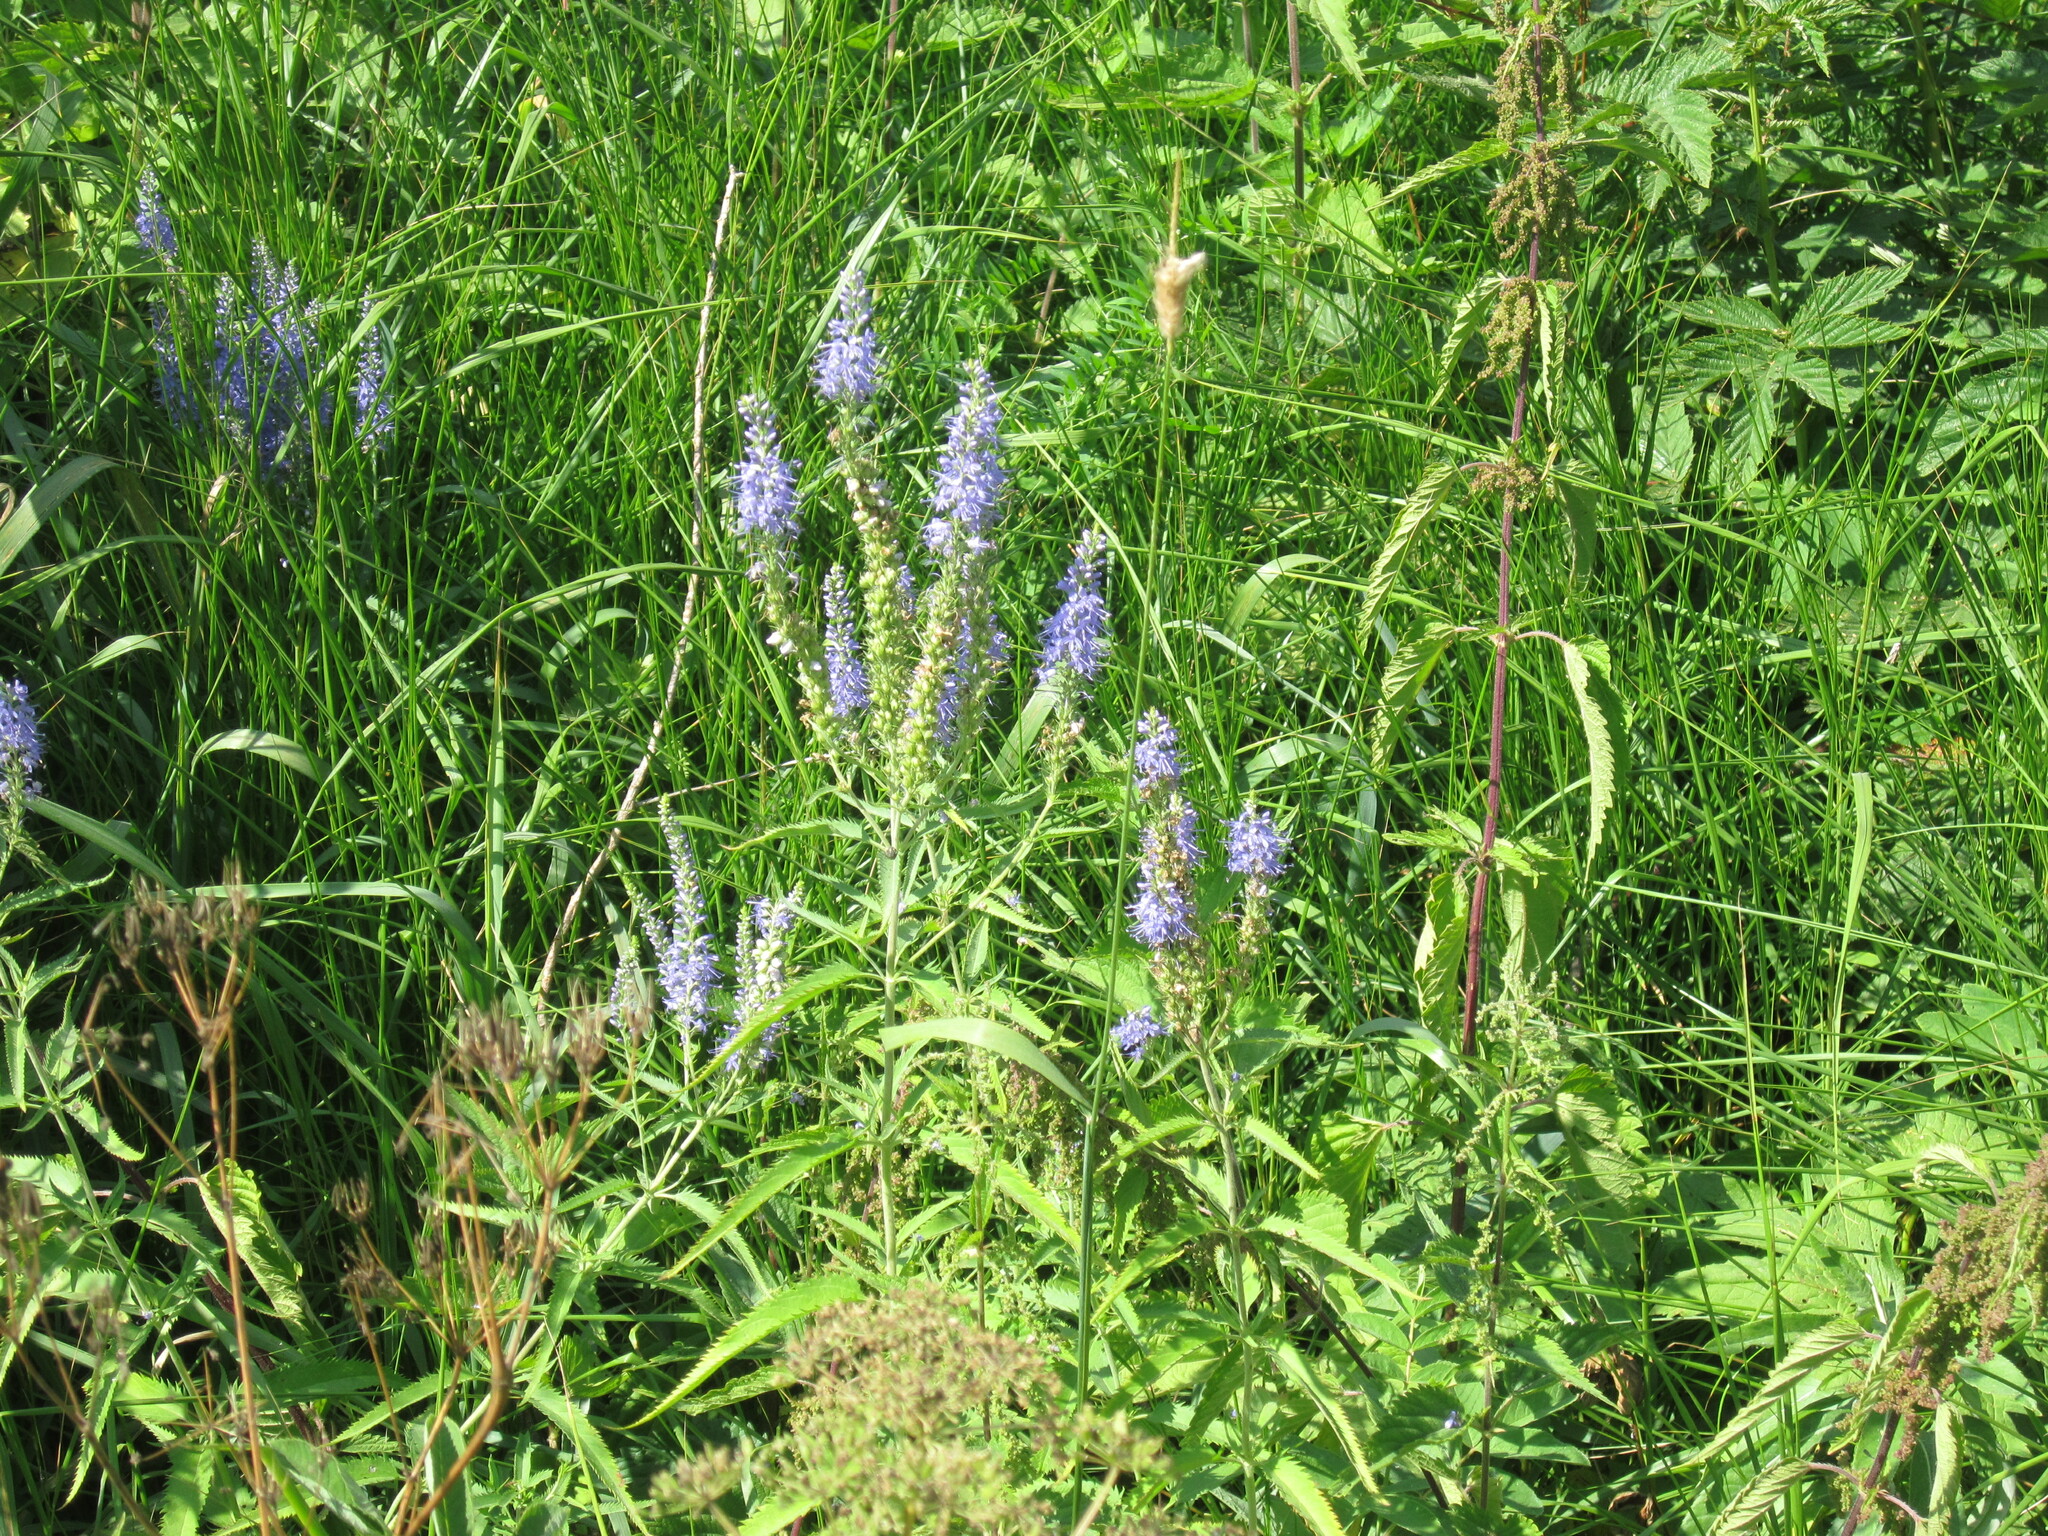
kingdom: Plantae
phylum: Tracheophyta
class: Magnoliopsida
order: Lamiales
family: Plantaginaceae
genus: Veronica
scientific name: Veronica longifolia
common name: Garden speedwell
